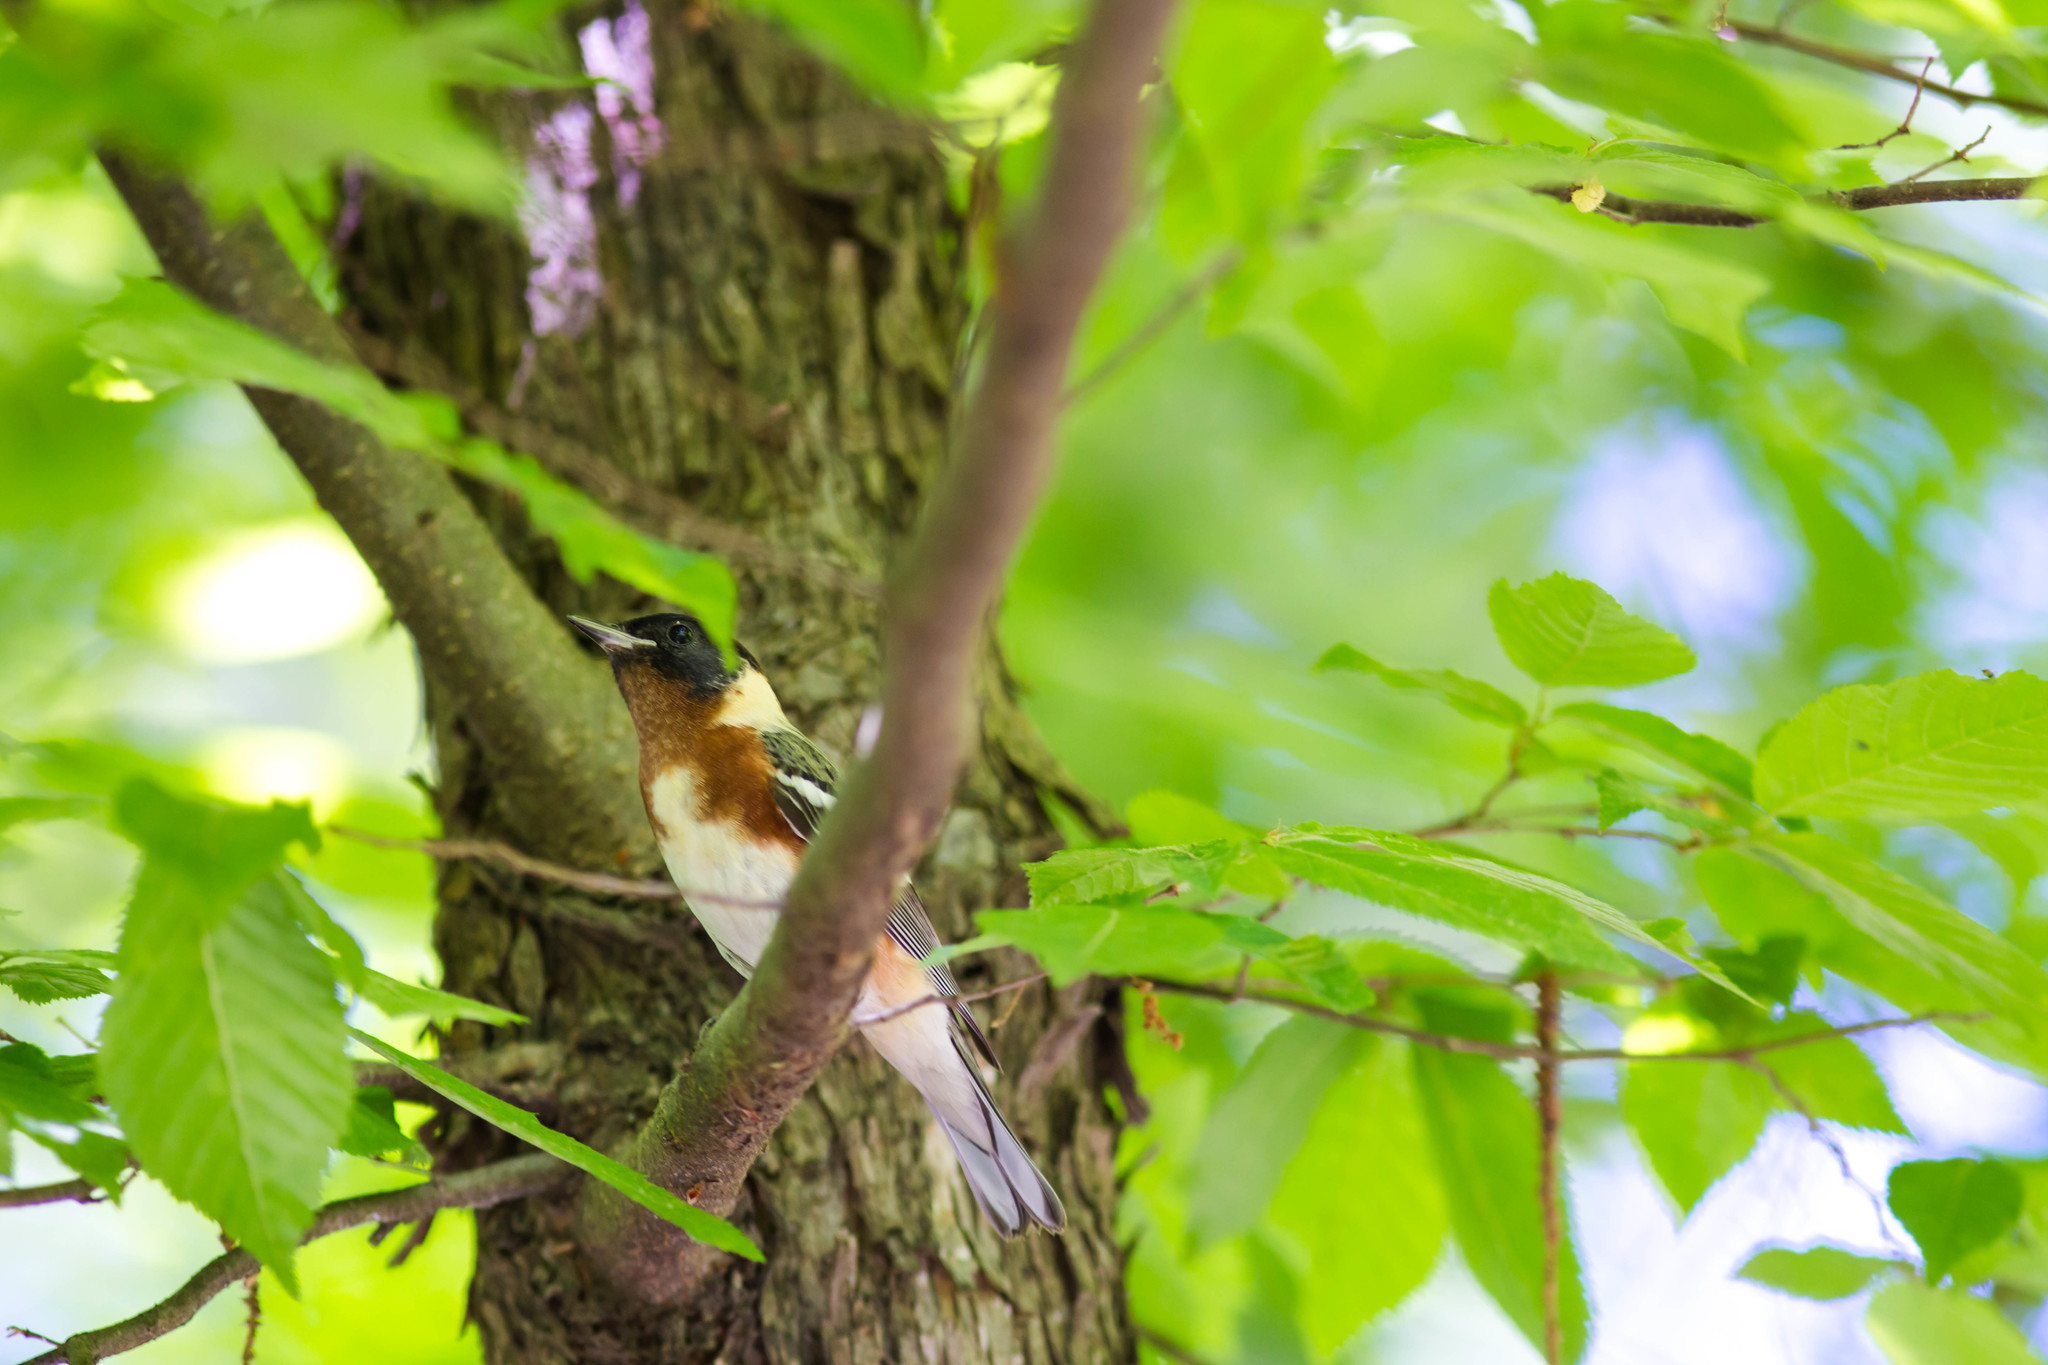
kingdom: Animalia
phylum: Chordata
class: Aves
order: Passeriformes
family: Parulidae
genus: Setophaga
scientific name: Setophaga castanea
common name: Bay-breasted warbler
